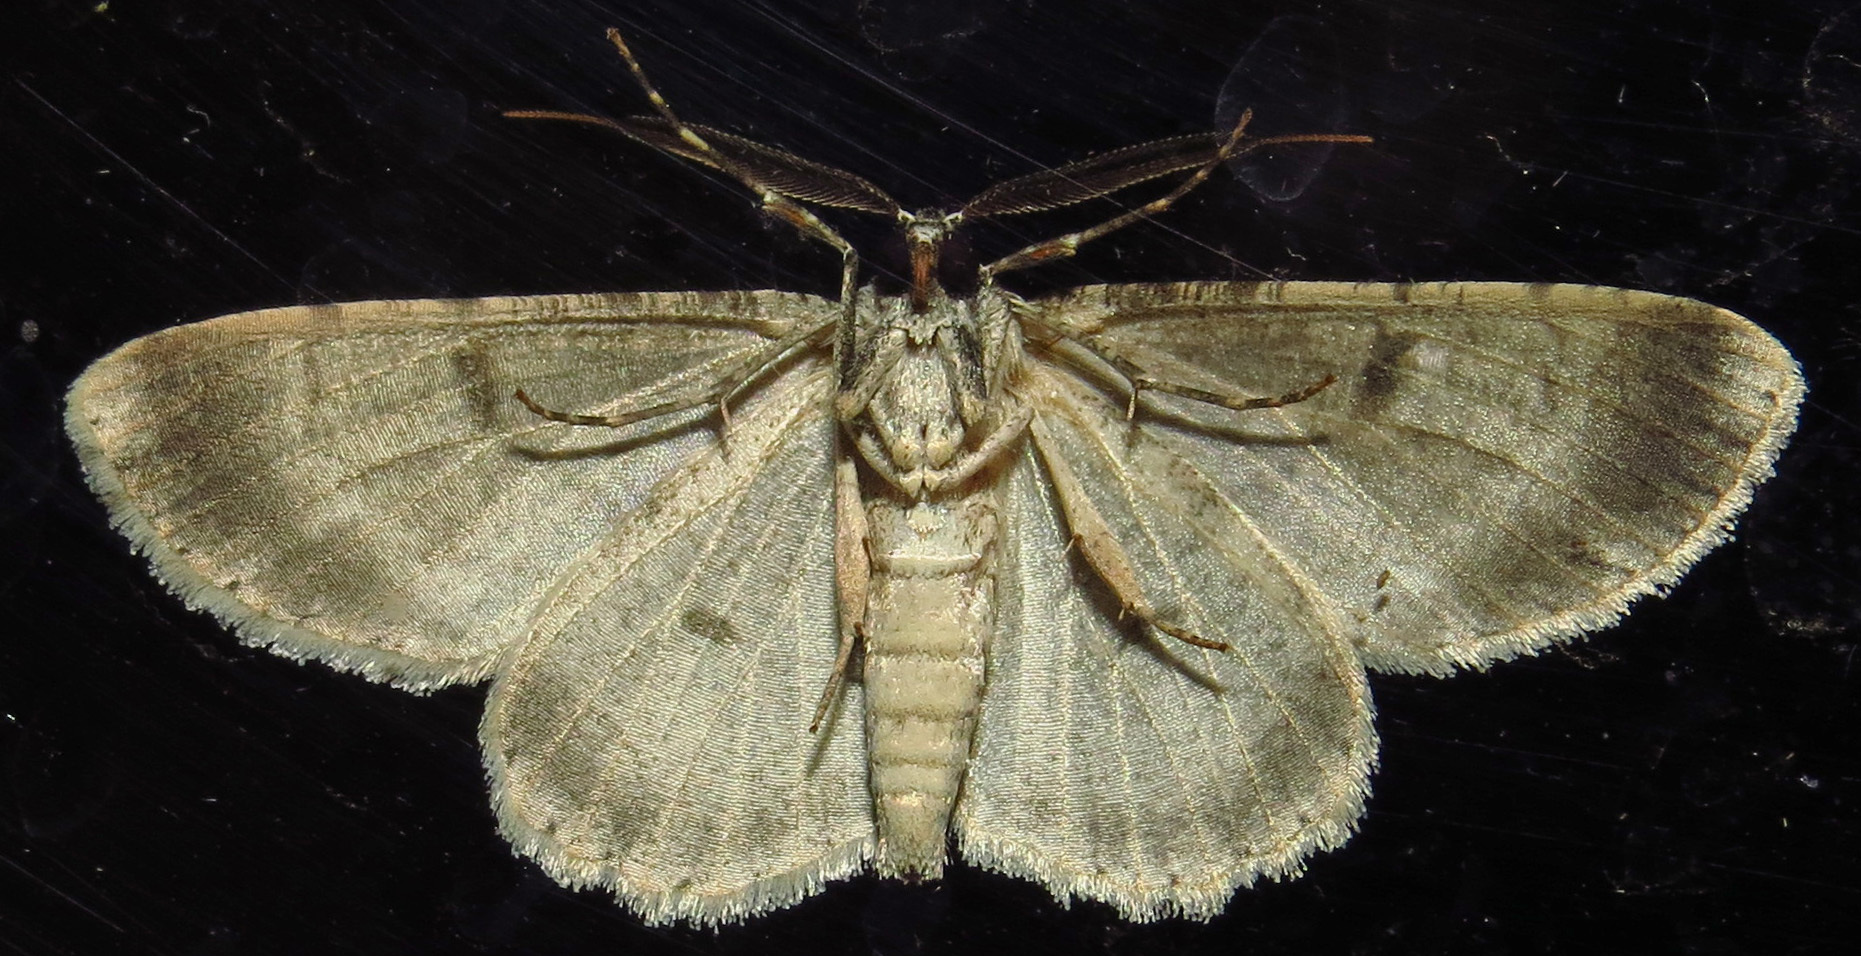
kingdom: Animalia
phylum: Arthropoda
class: Insecta
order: Lepidoptera
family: Geometridae
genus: Iridopsis
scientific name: Iridopsis defectaria
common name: Brown-shaded gray
